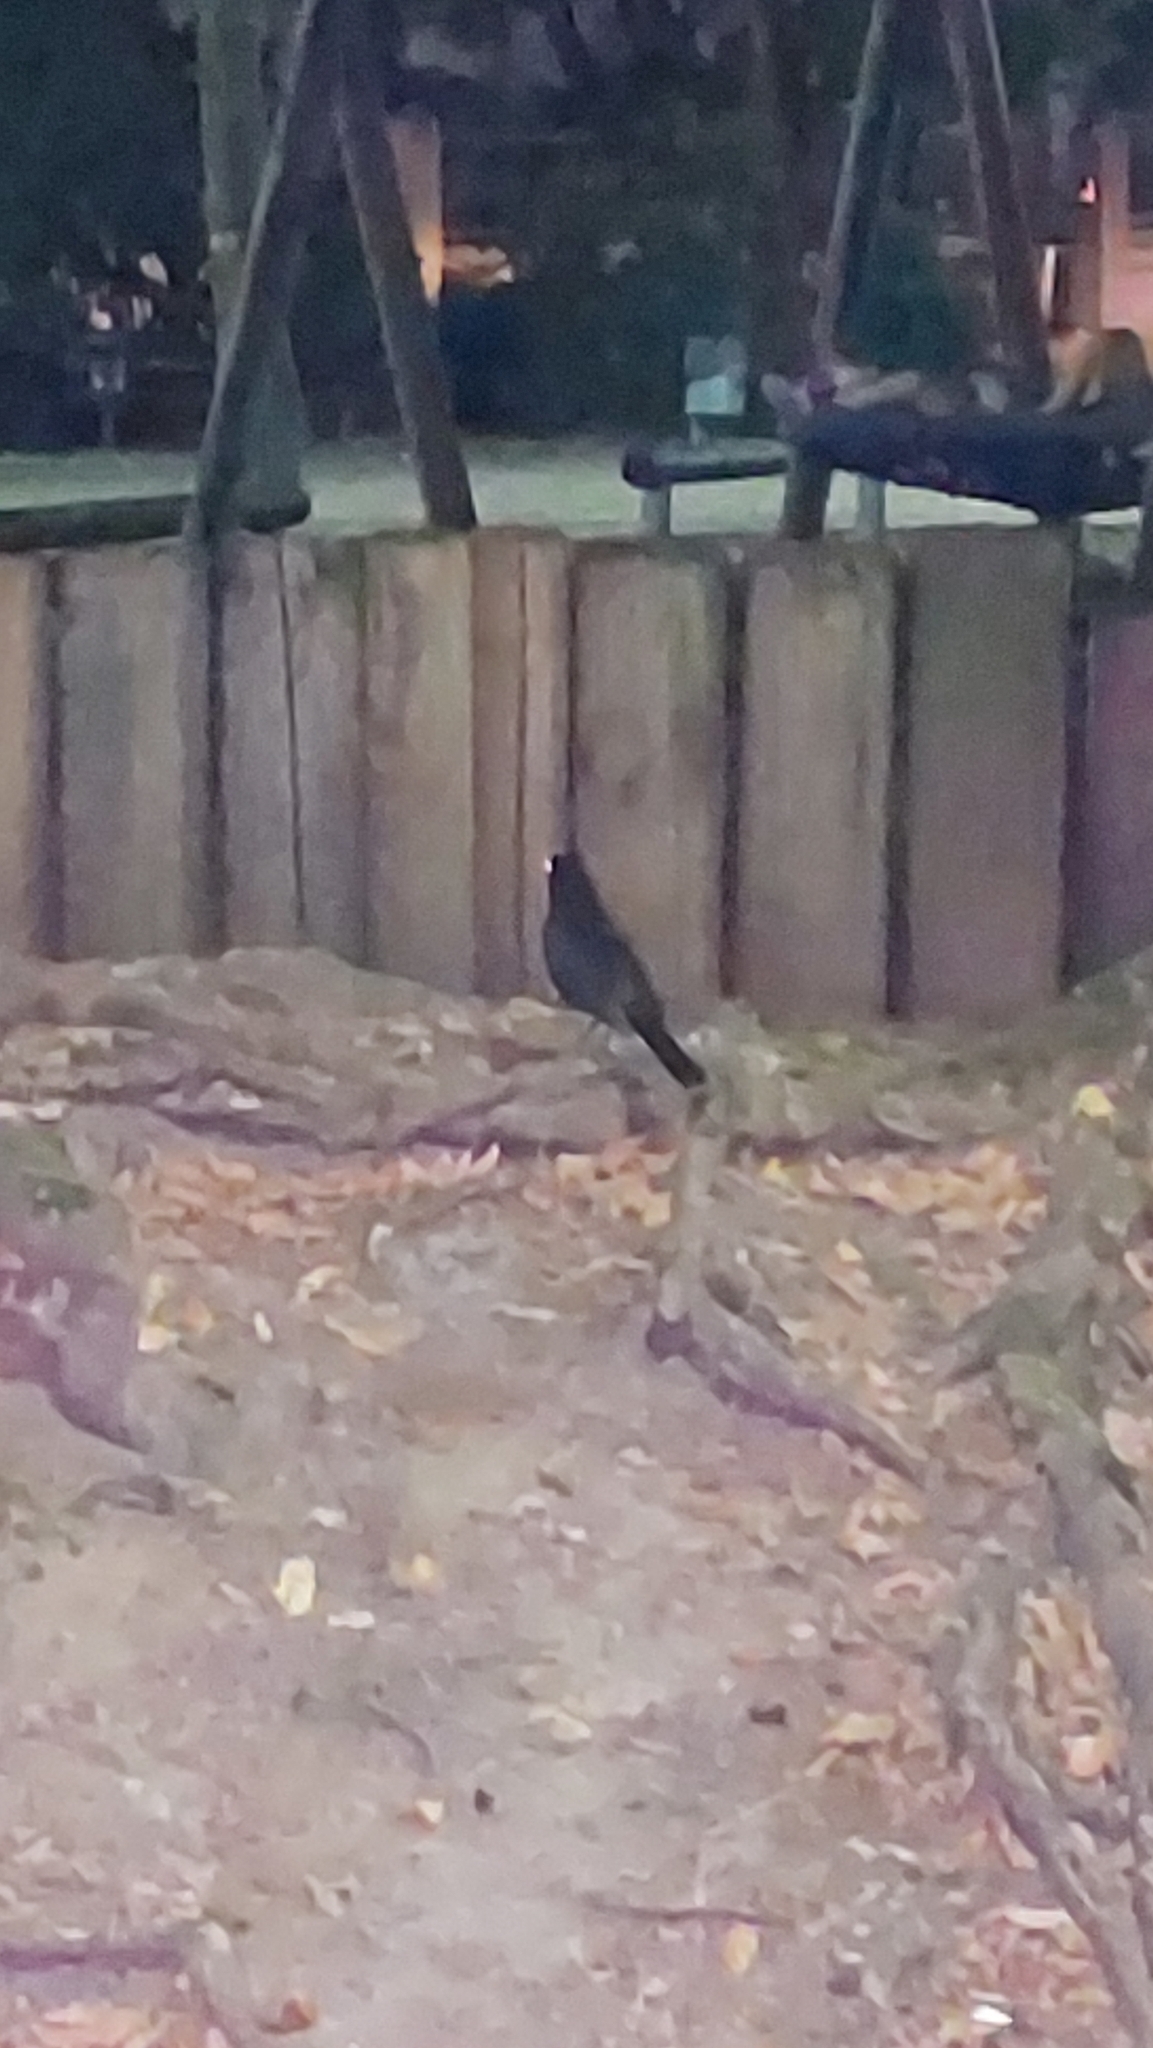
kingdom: Animalia
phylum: Chordata
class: Aves
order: Passeriformes
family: Turdidae
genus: Turdus
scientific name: Turdus merula
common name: Common blackbird
